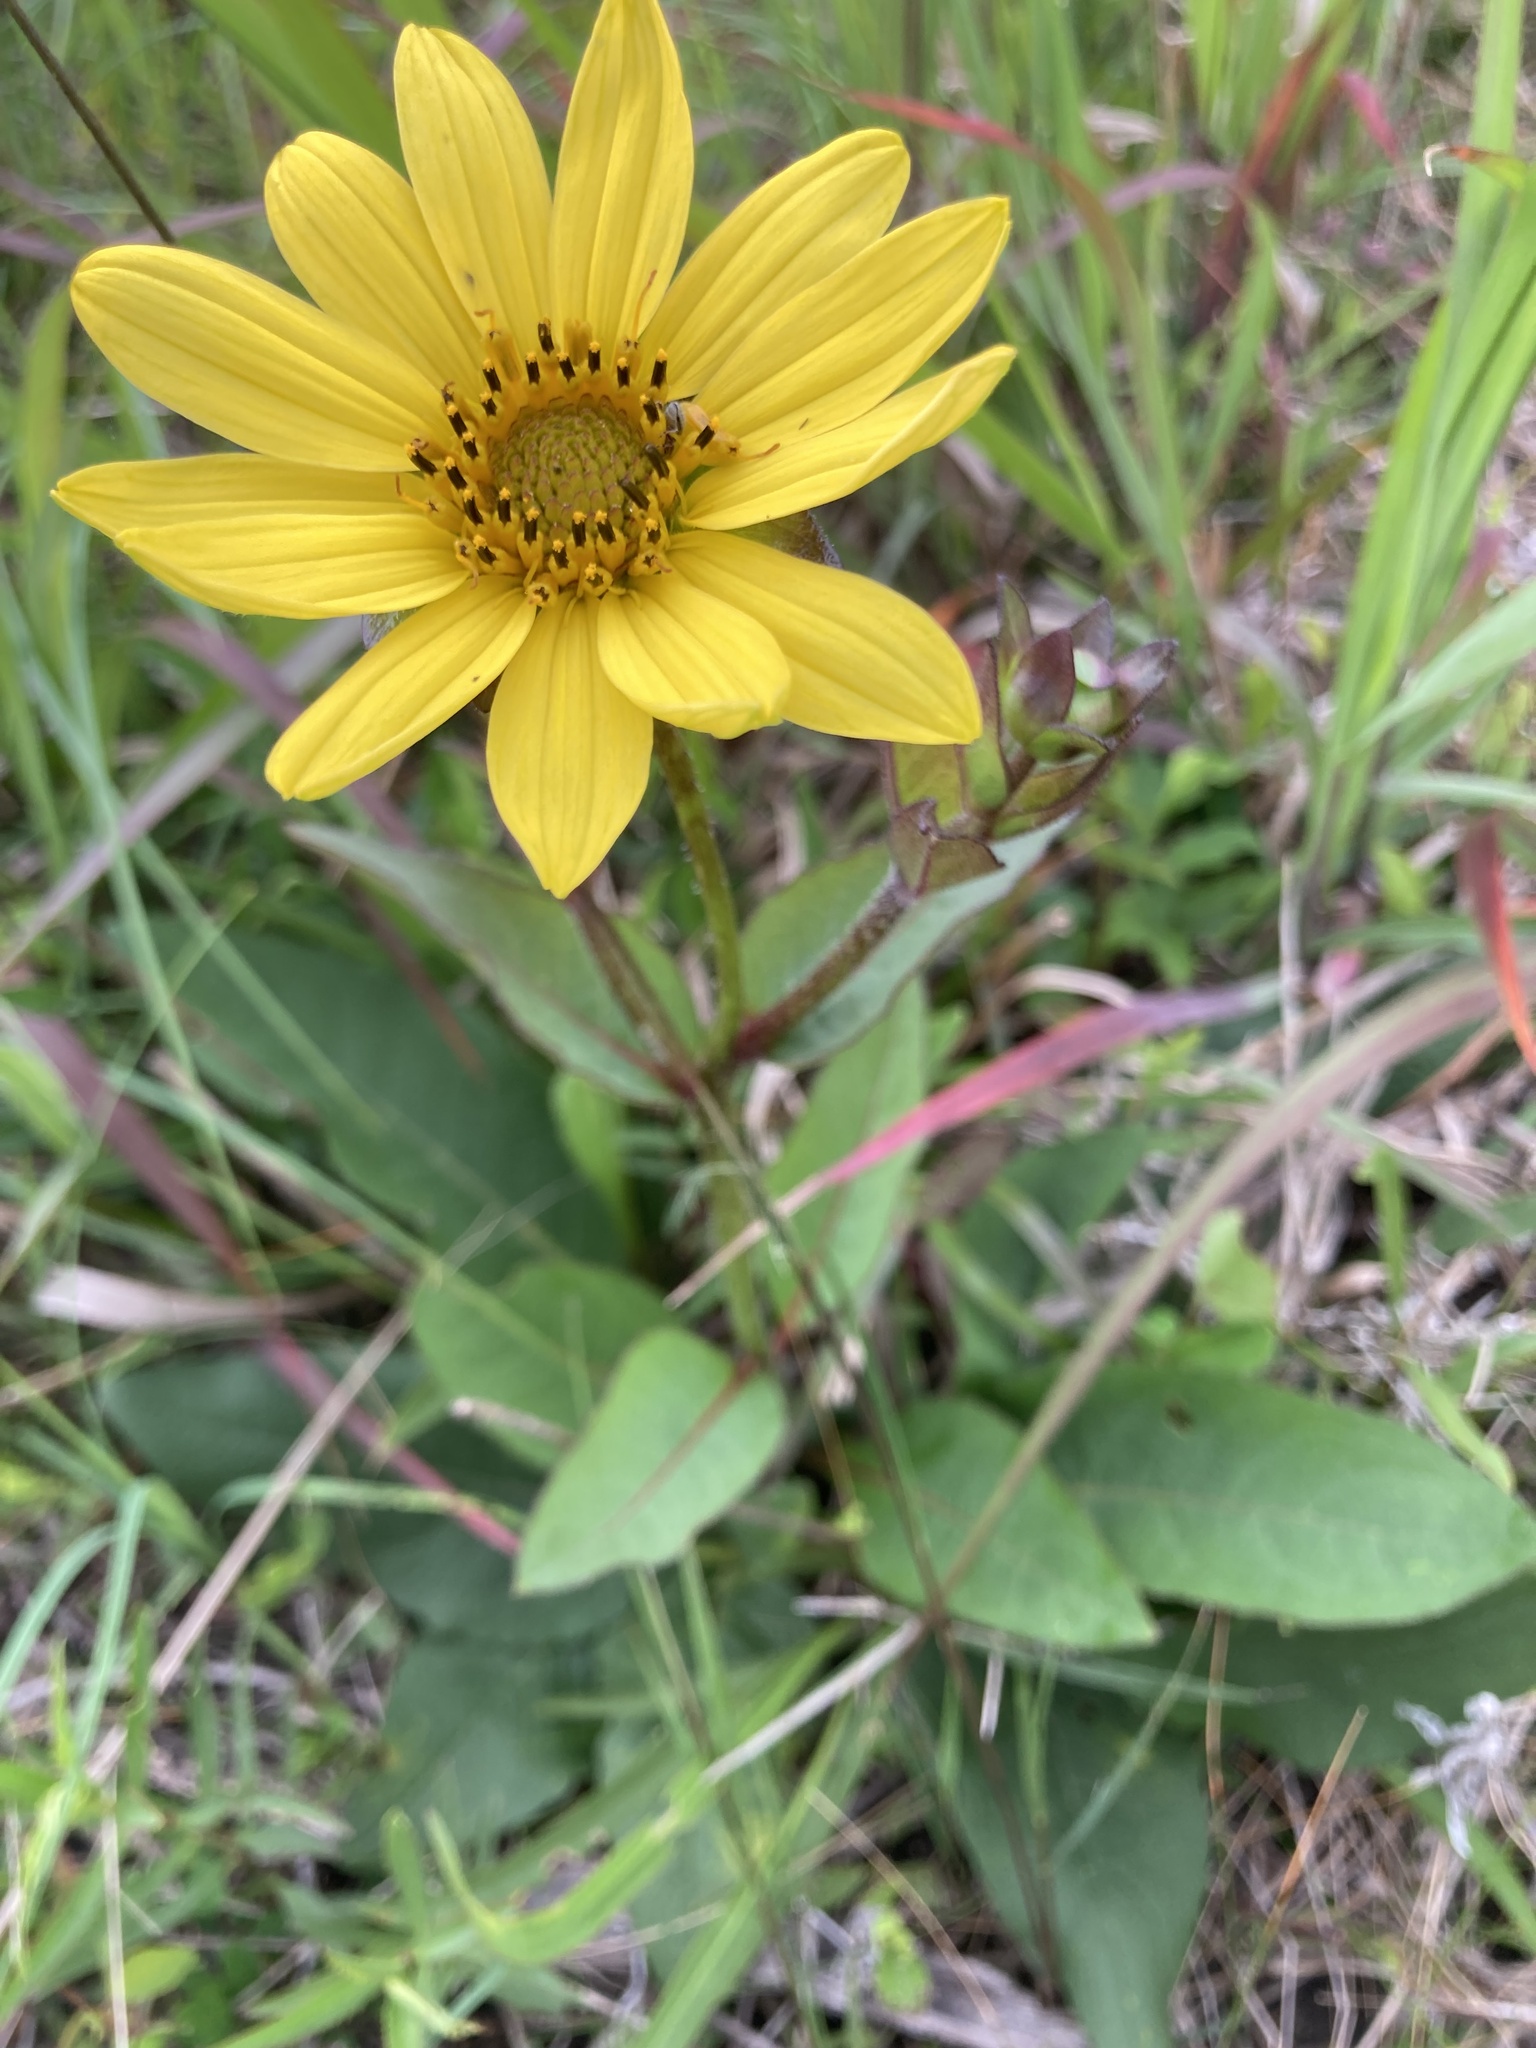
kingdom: Plantae
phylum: Tracheophyta
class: Magnoliopsida
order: Asterales
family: Asteraceae
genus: Silphium
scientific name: Silphium radula
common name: Roughleaf rosinweed
